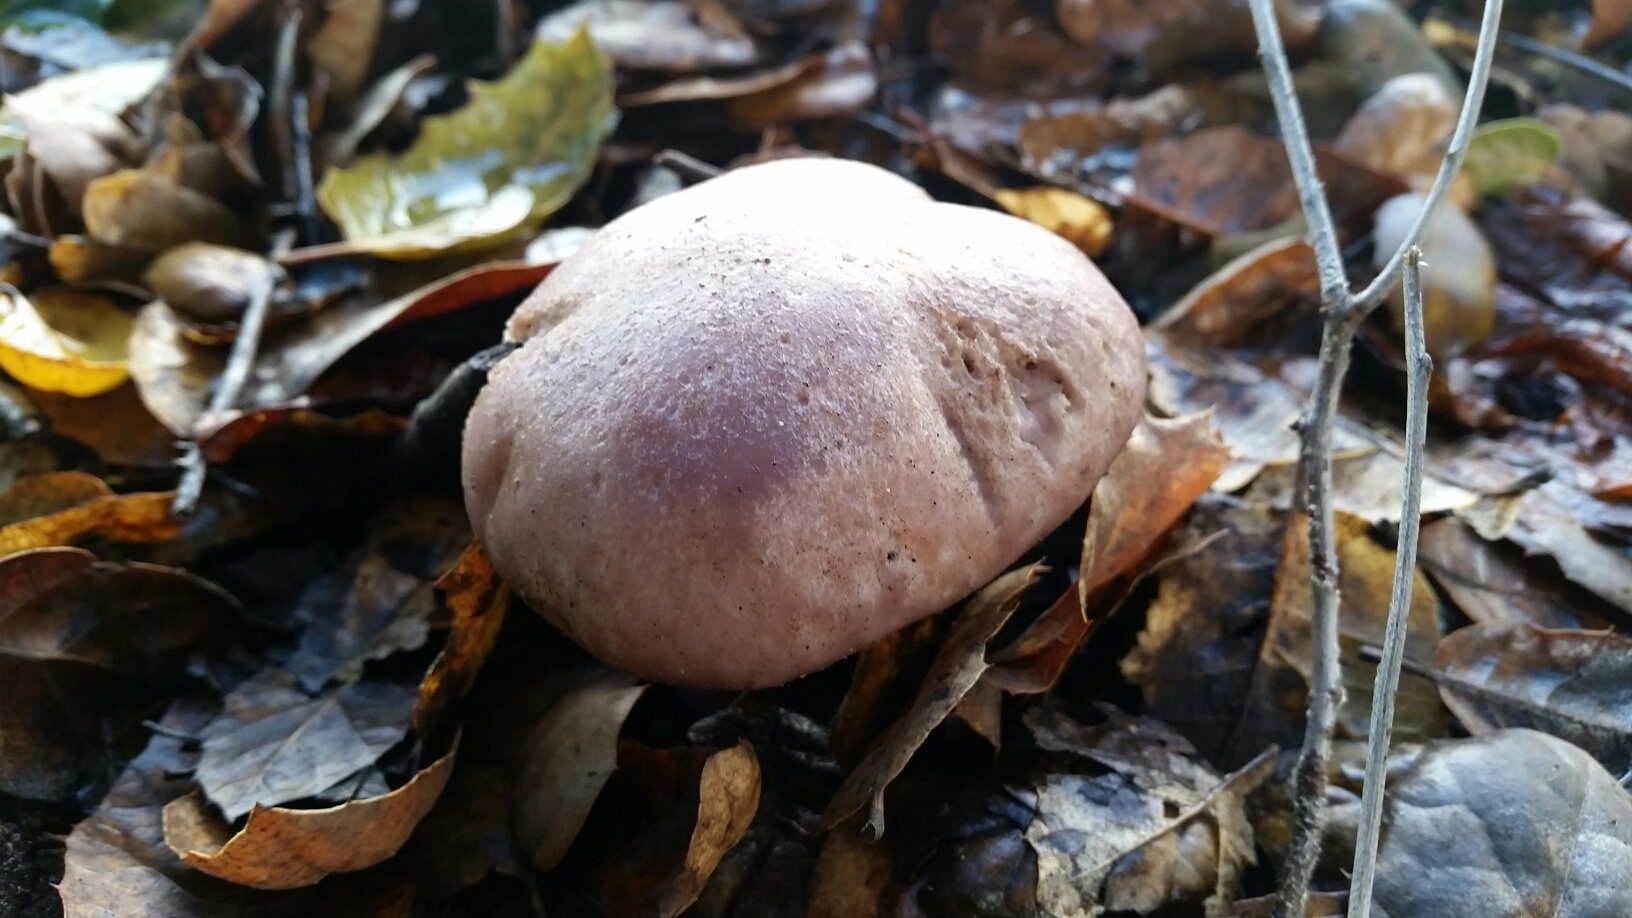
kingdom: Fungi
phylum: Basidiomycota
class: Agaricomycetes
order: Agaricales
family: Tricholomataceae
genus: Collybia
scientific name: Collybia
